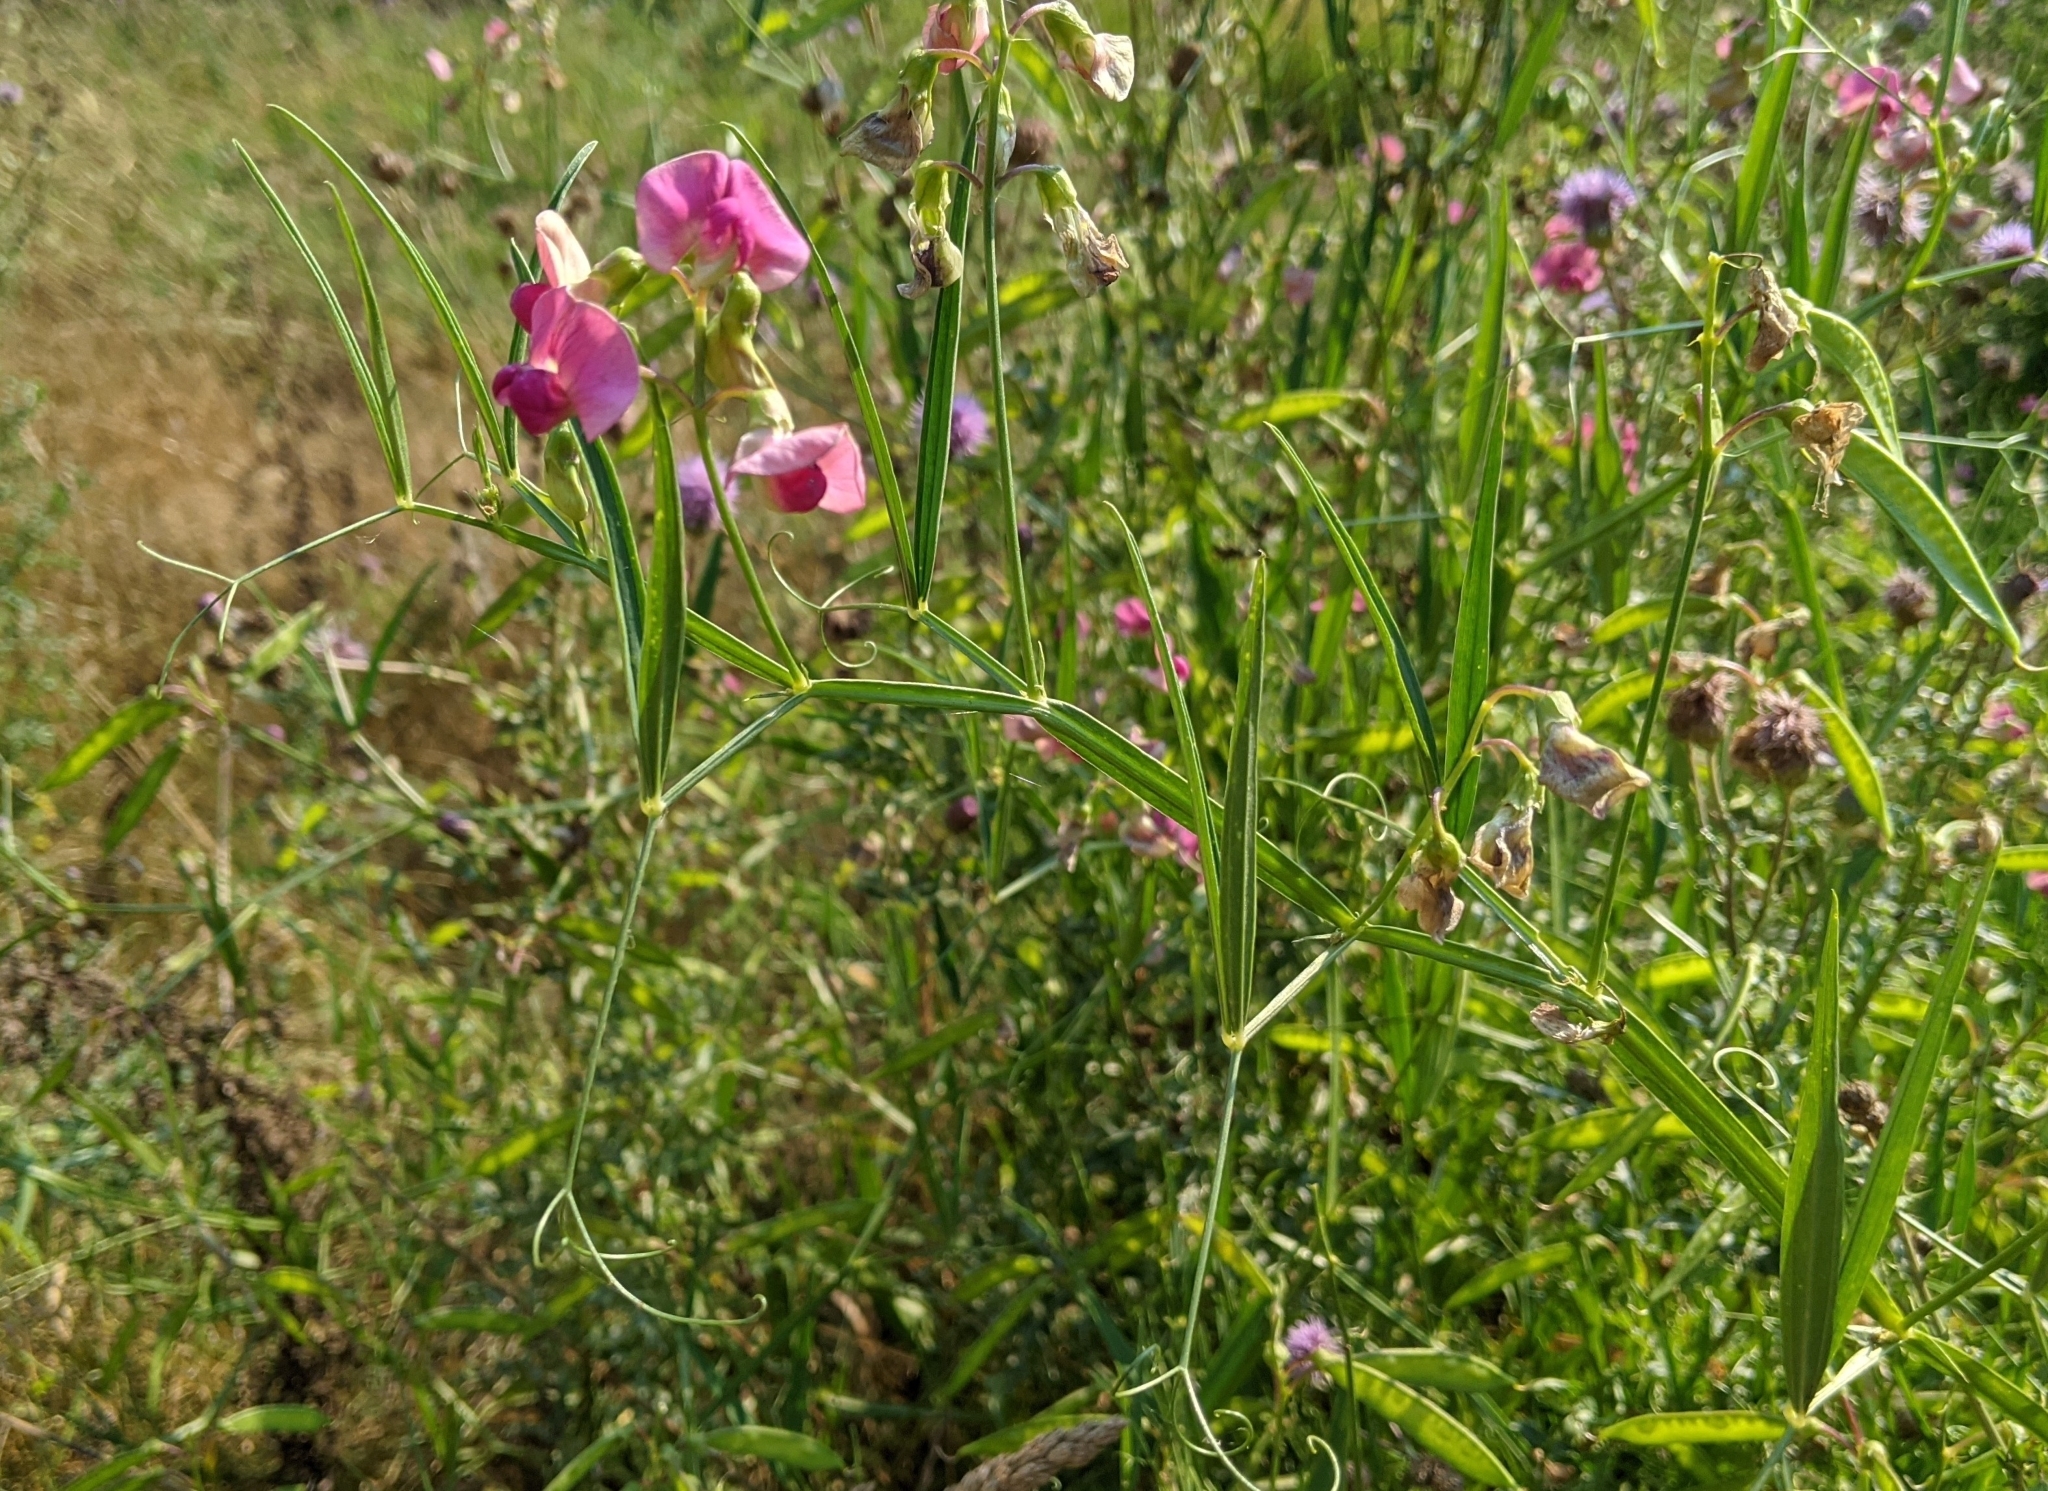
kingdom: Plantae
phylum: Tracheophyta
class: Magnoliopsida
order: Fabales
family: Fabaceae
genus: Lathyrus
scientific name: Lathyrus sylvestris
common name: Flat pea
